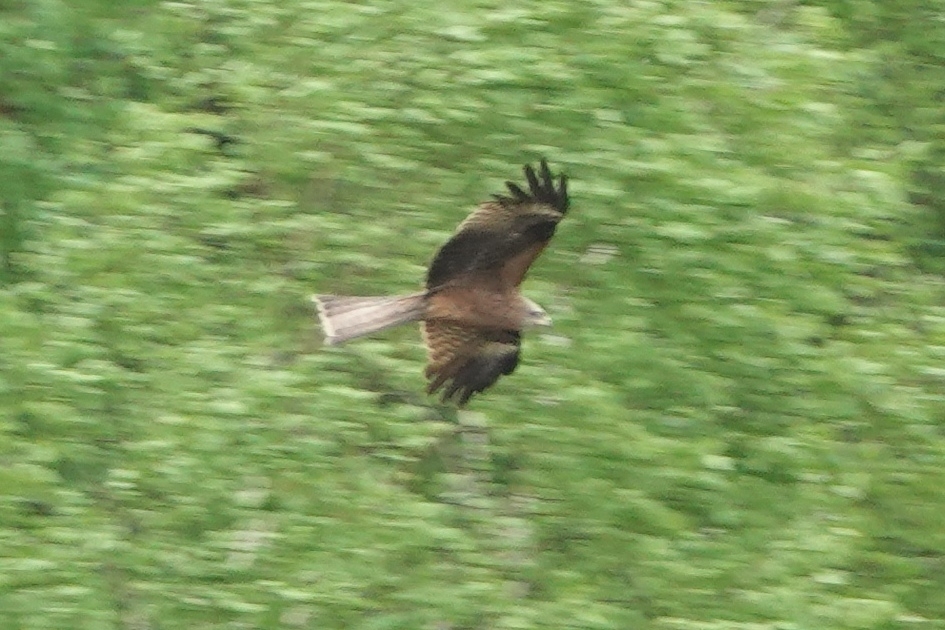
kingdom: Animalia
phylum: Chordata
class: Aves
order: Accipitriformes
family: Accipitridae
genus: Milvus
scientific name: Milvus migrans
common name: Black kite
